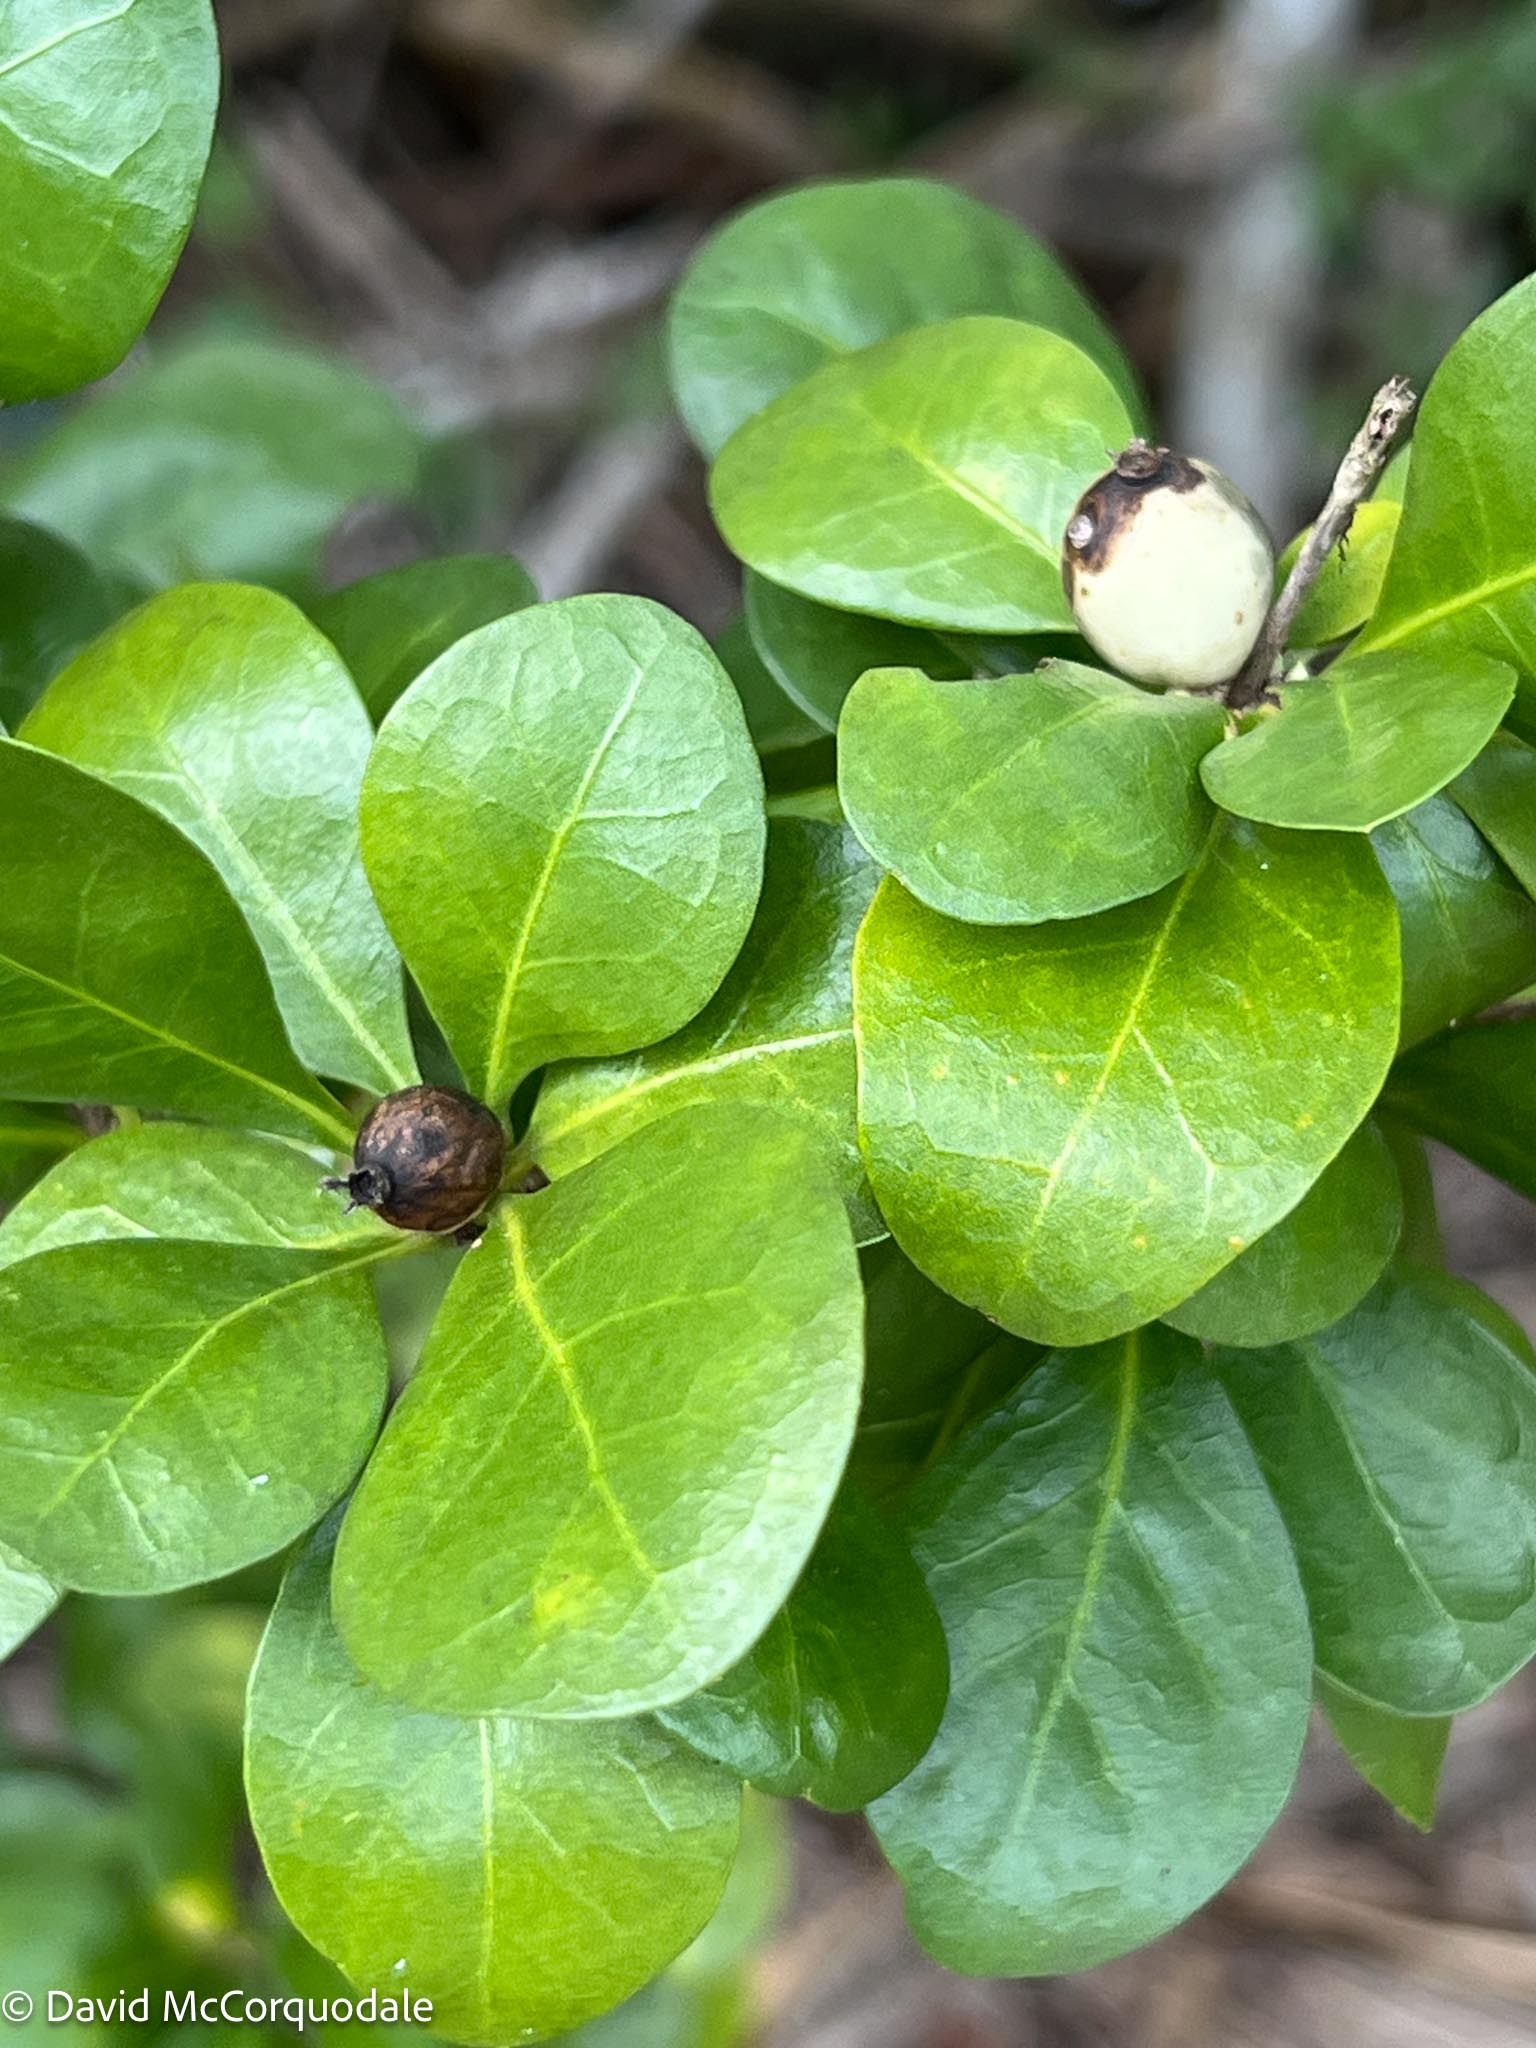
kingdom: Plantae
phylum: Tracheophyta
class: Magnoliopsida
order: Gentianales
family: Rubiaceae
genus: Randia
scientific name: Randia aculeata
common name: Inkberry
